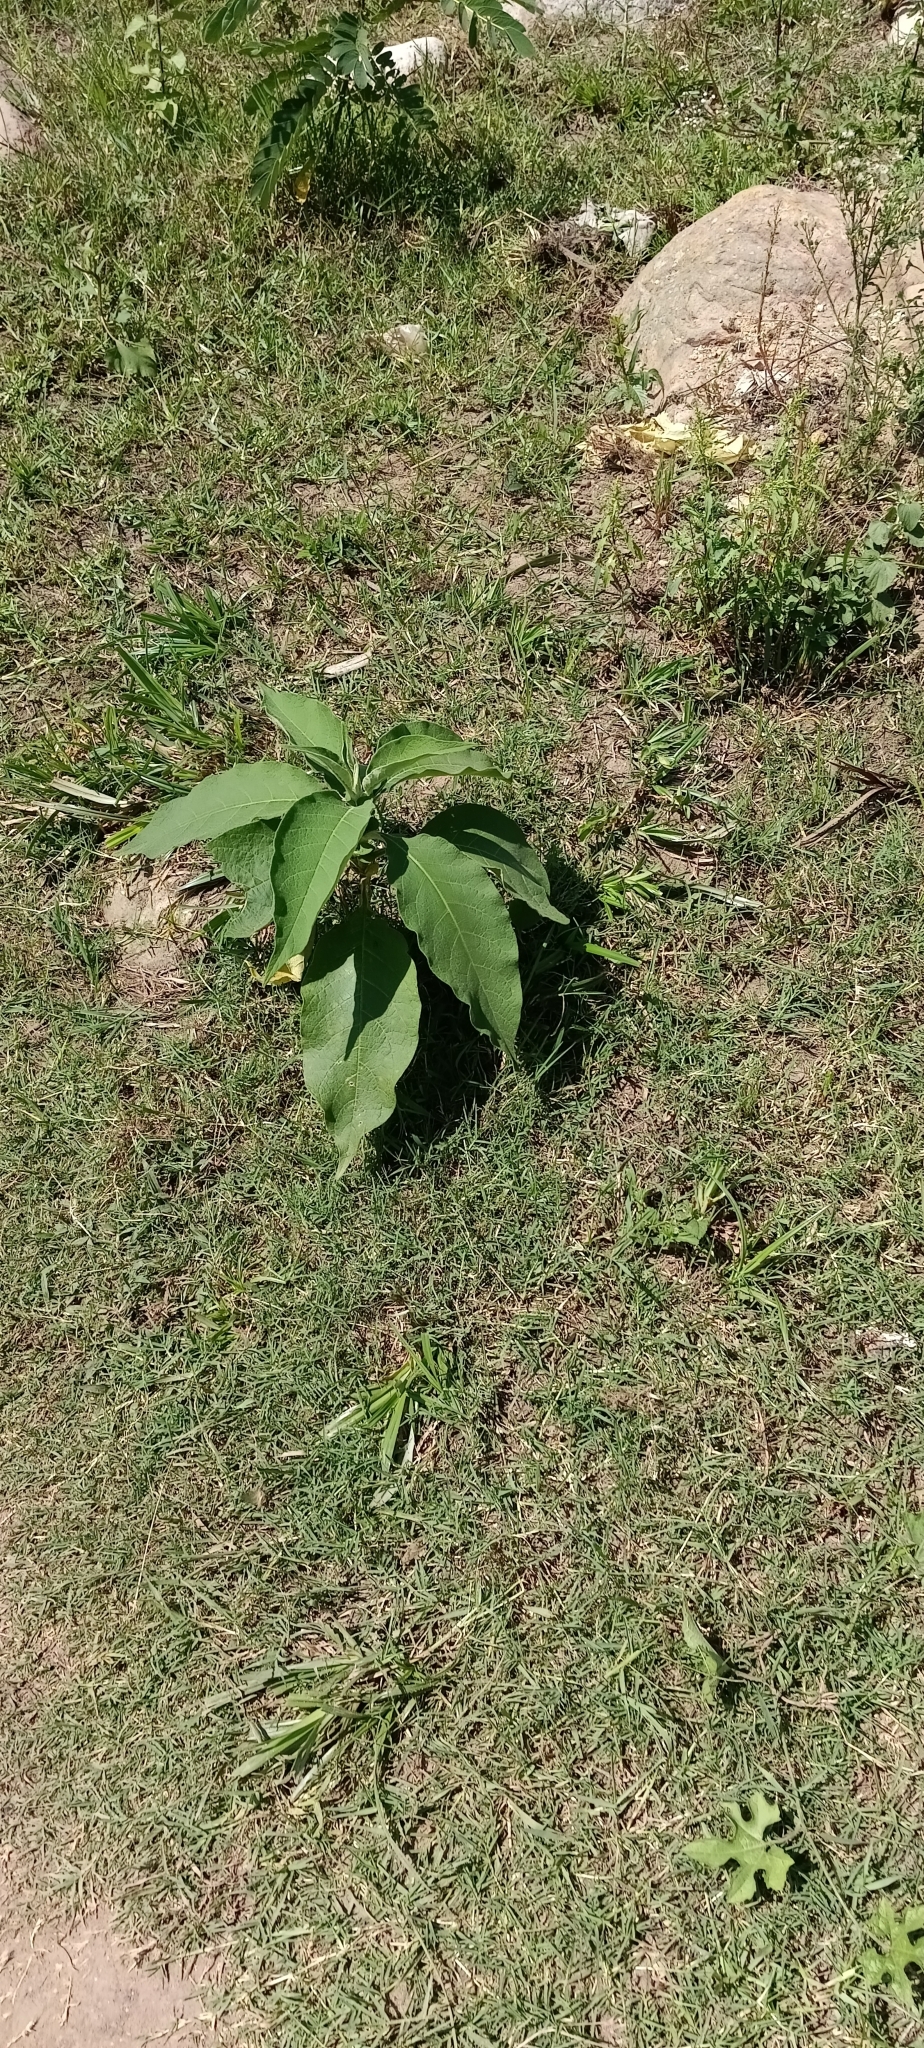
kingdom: Plantae
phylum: Tracheophyta
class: Magnoliopsida
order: Solanales
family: Solanaceae
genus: Solanum
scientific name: Solanum mauritianum
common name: Earleaf nightshade
